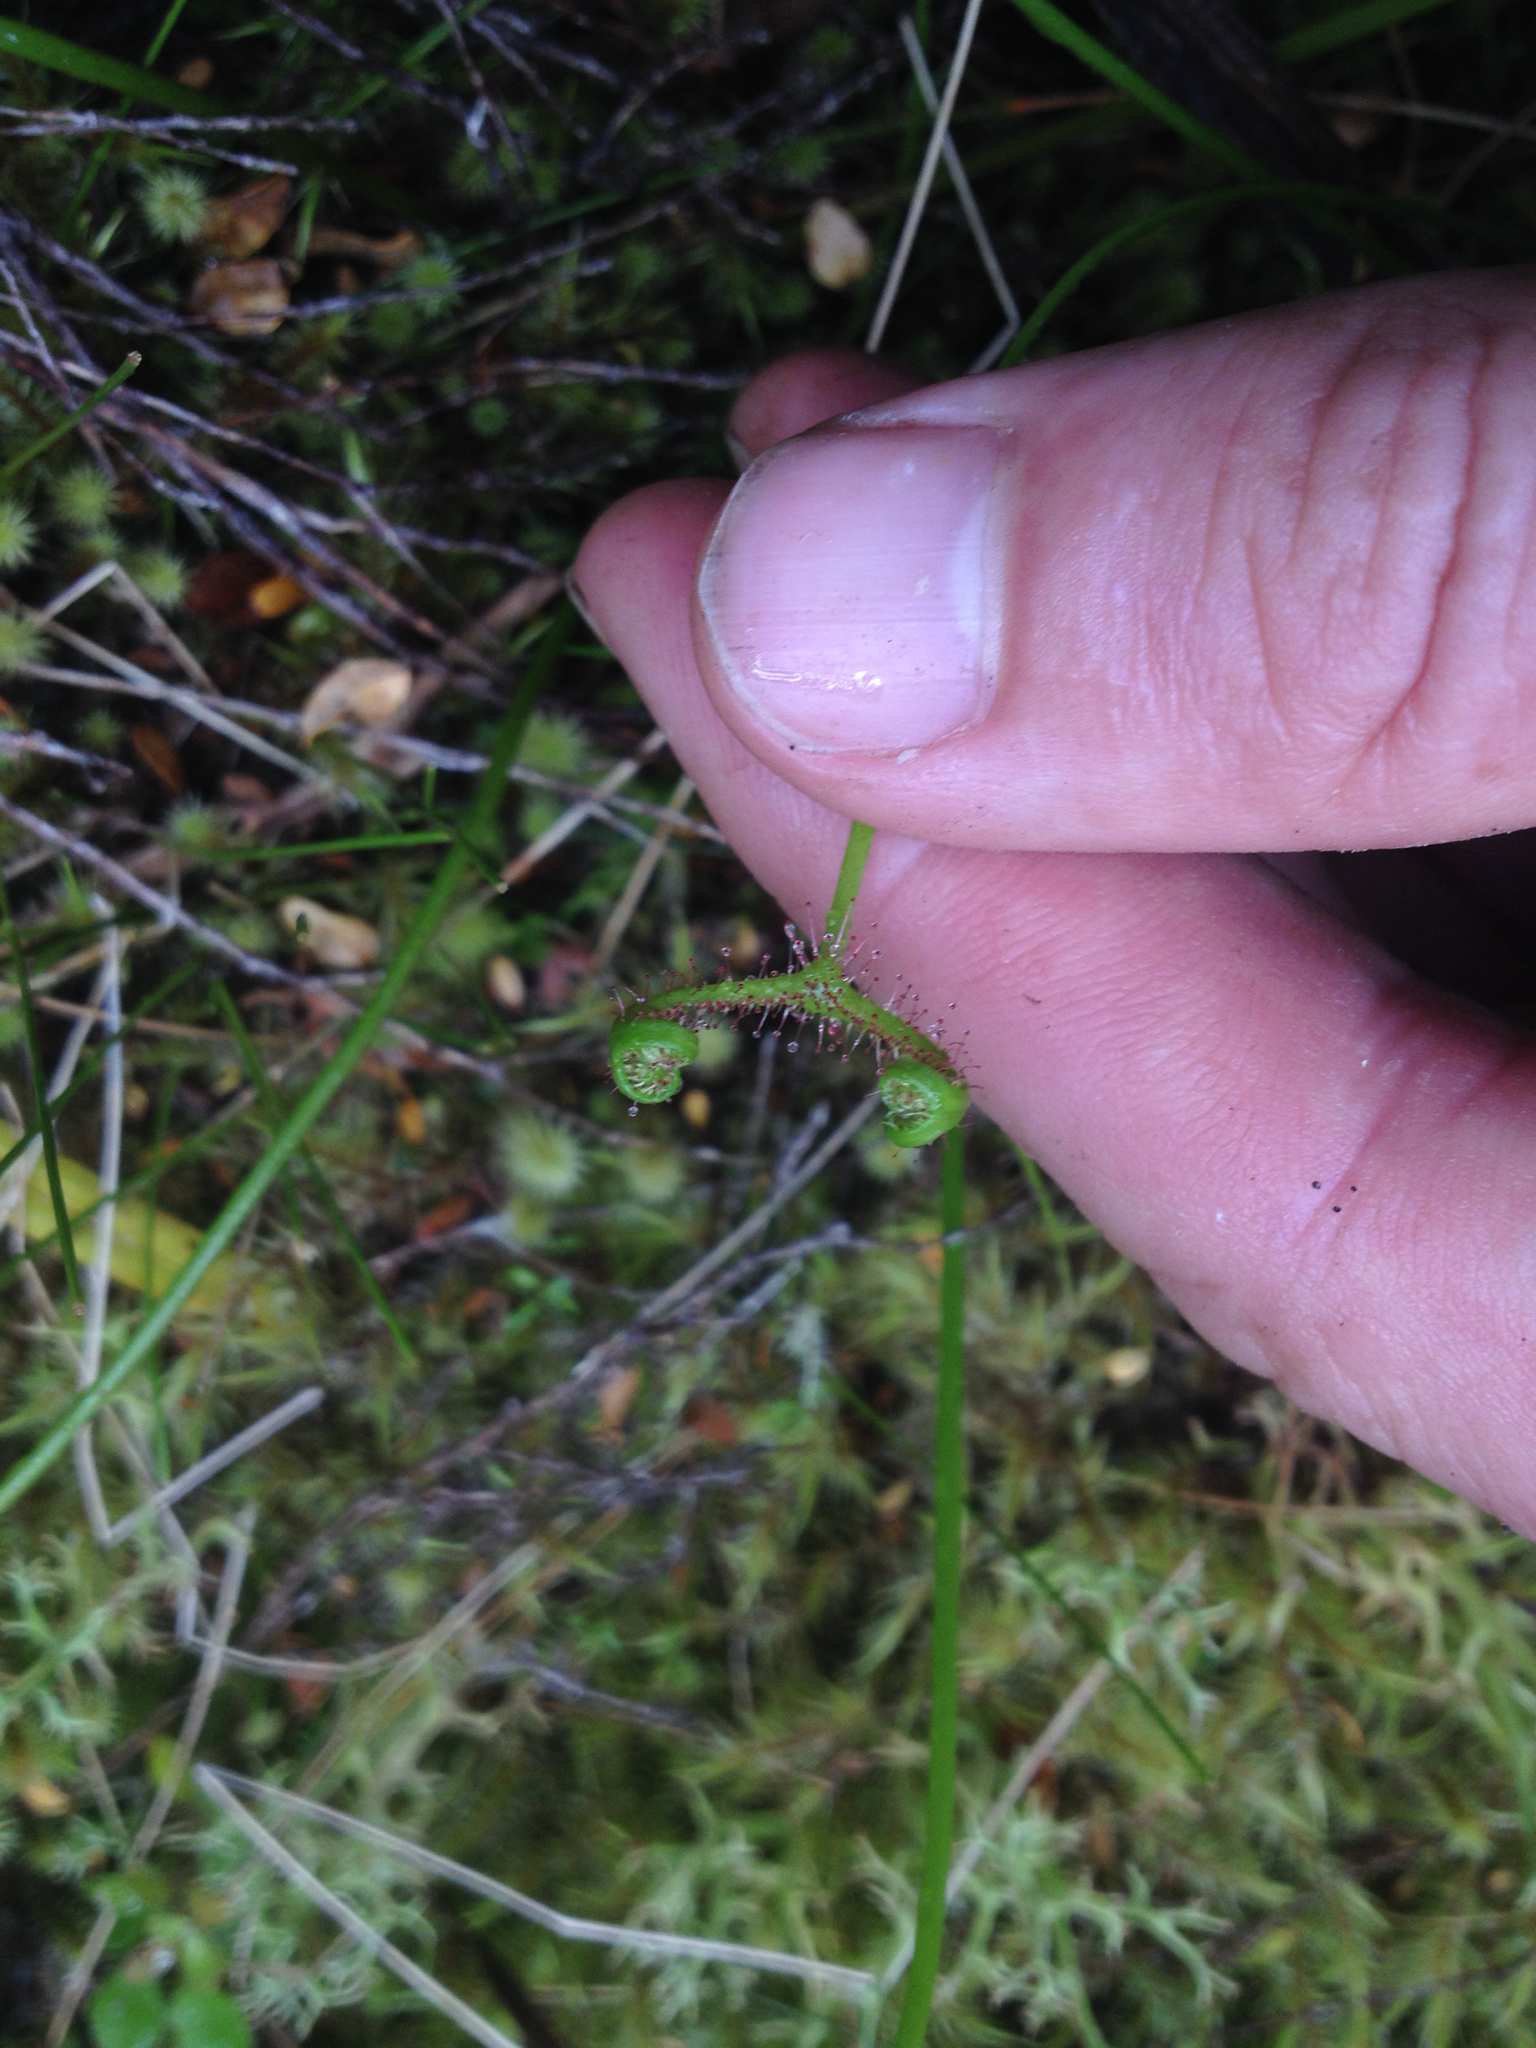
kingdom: Plantae
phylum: Tracheophyta
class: Magnoliopsida
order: Caryophyllales
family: Droseraceae
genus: Drosera
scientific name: Drosera binata
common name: Forked sundew
